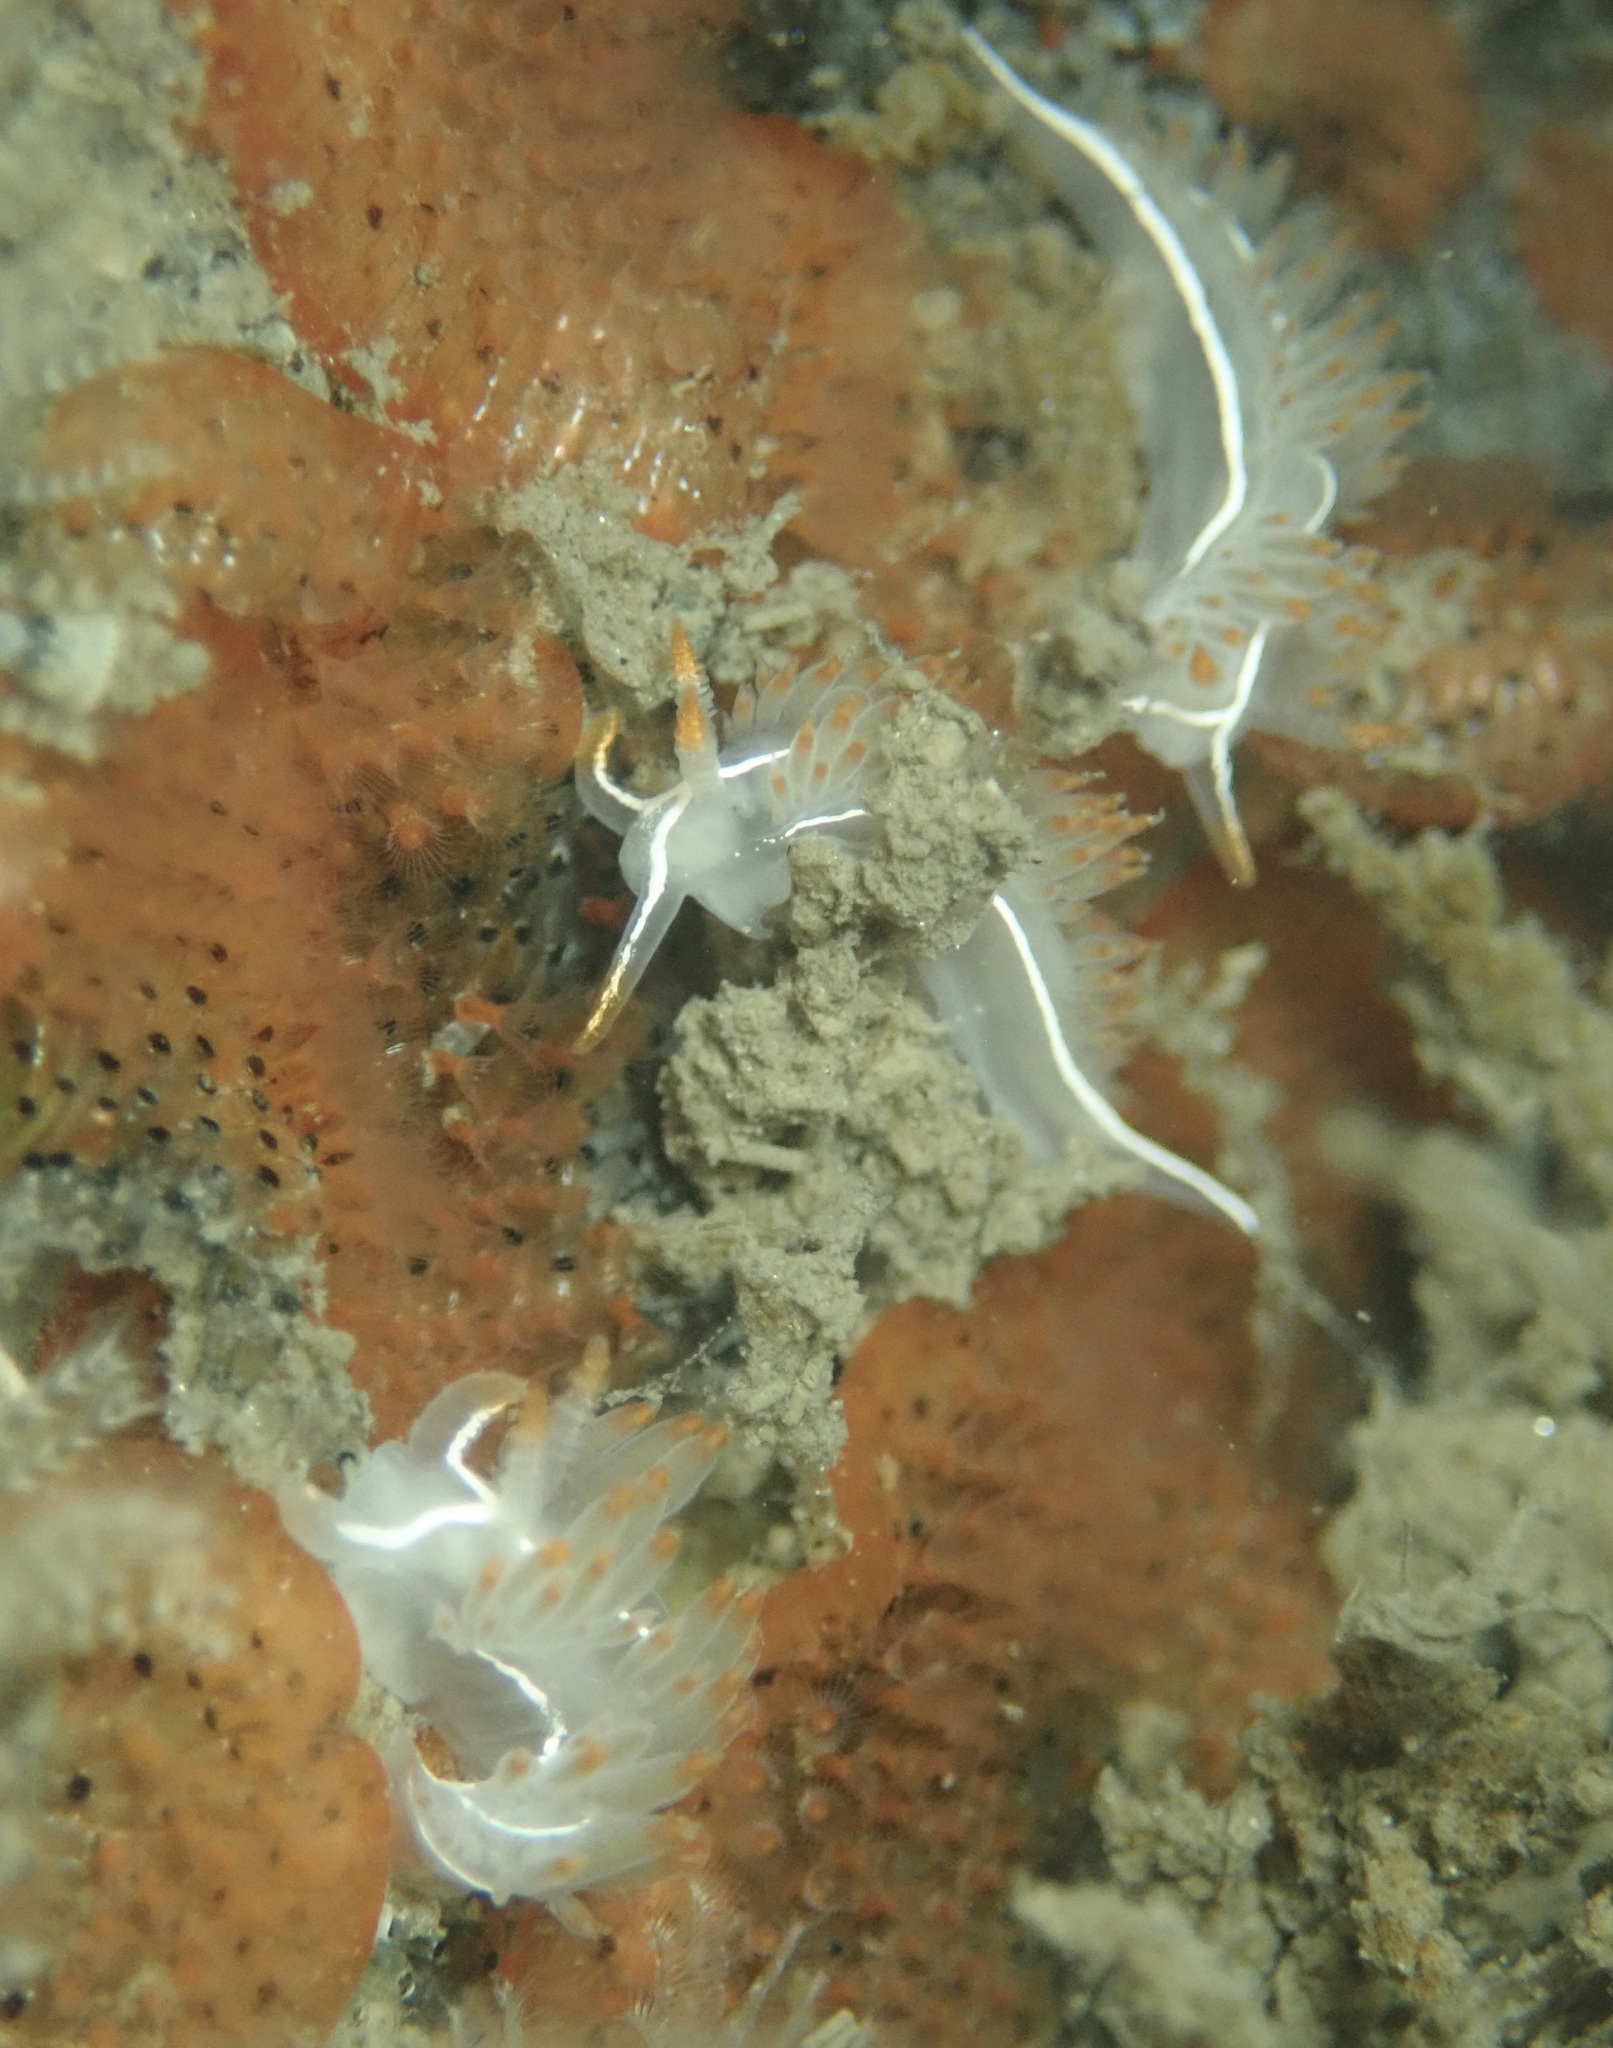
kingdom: Animalia
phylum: Mollusca
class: Gastropoda
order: Nudibranchia
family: Coryphellidae
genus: Coryphella
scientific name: Coryphella trilineata
